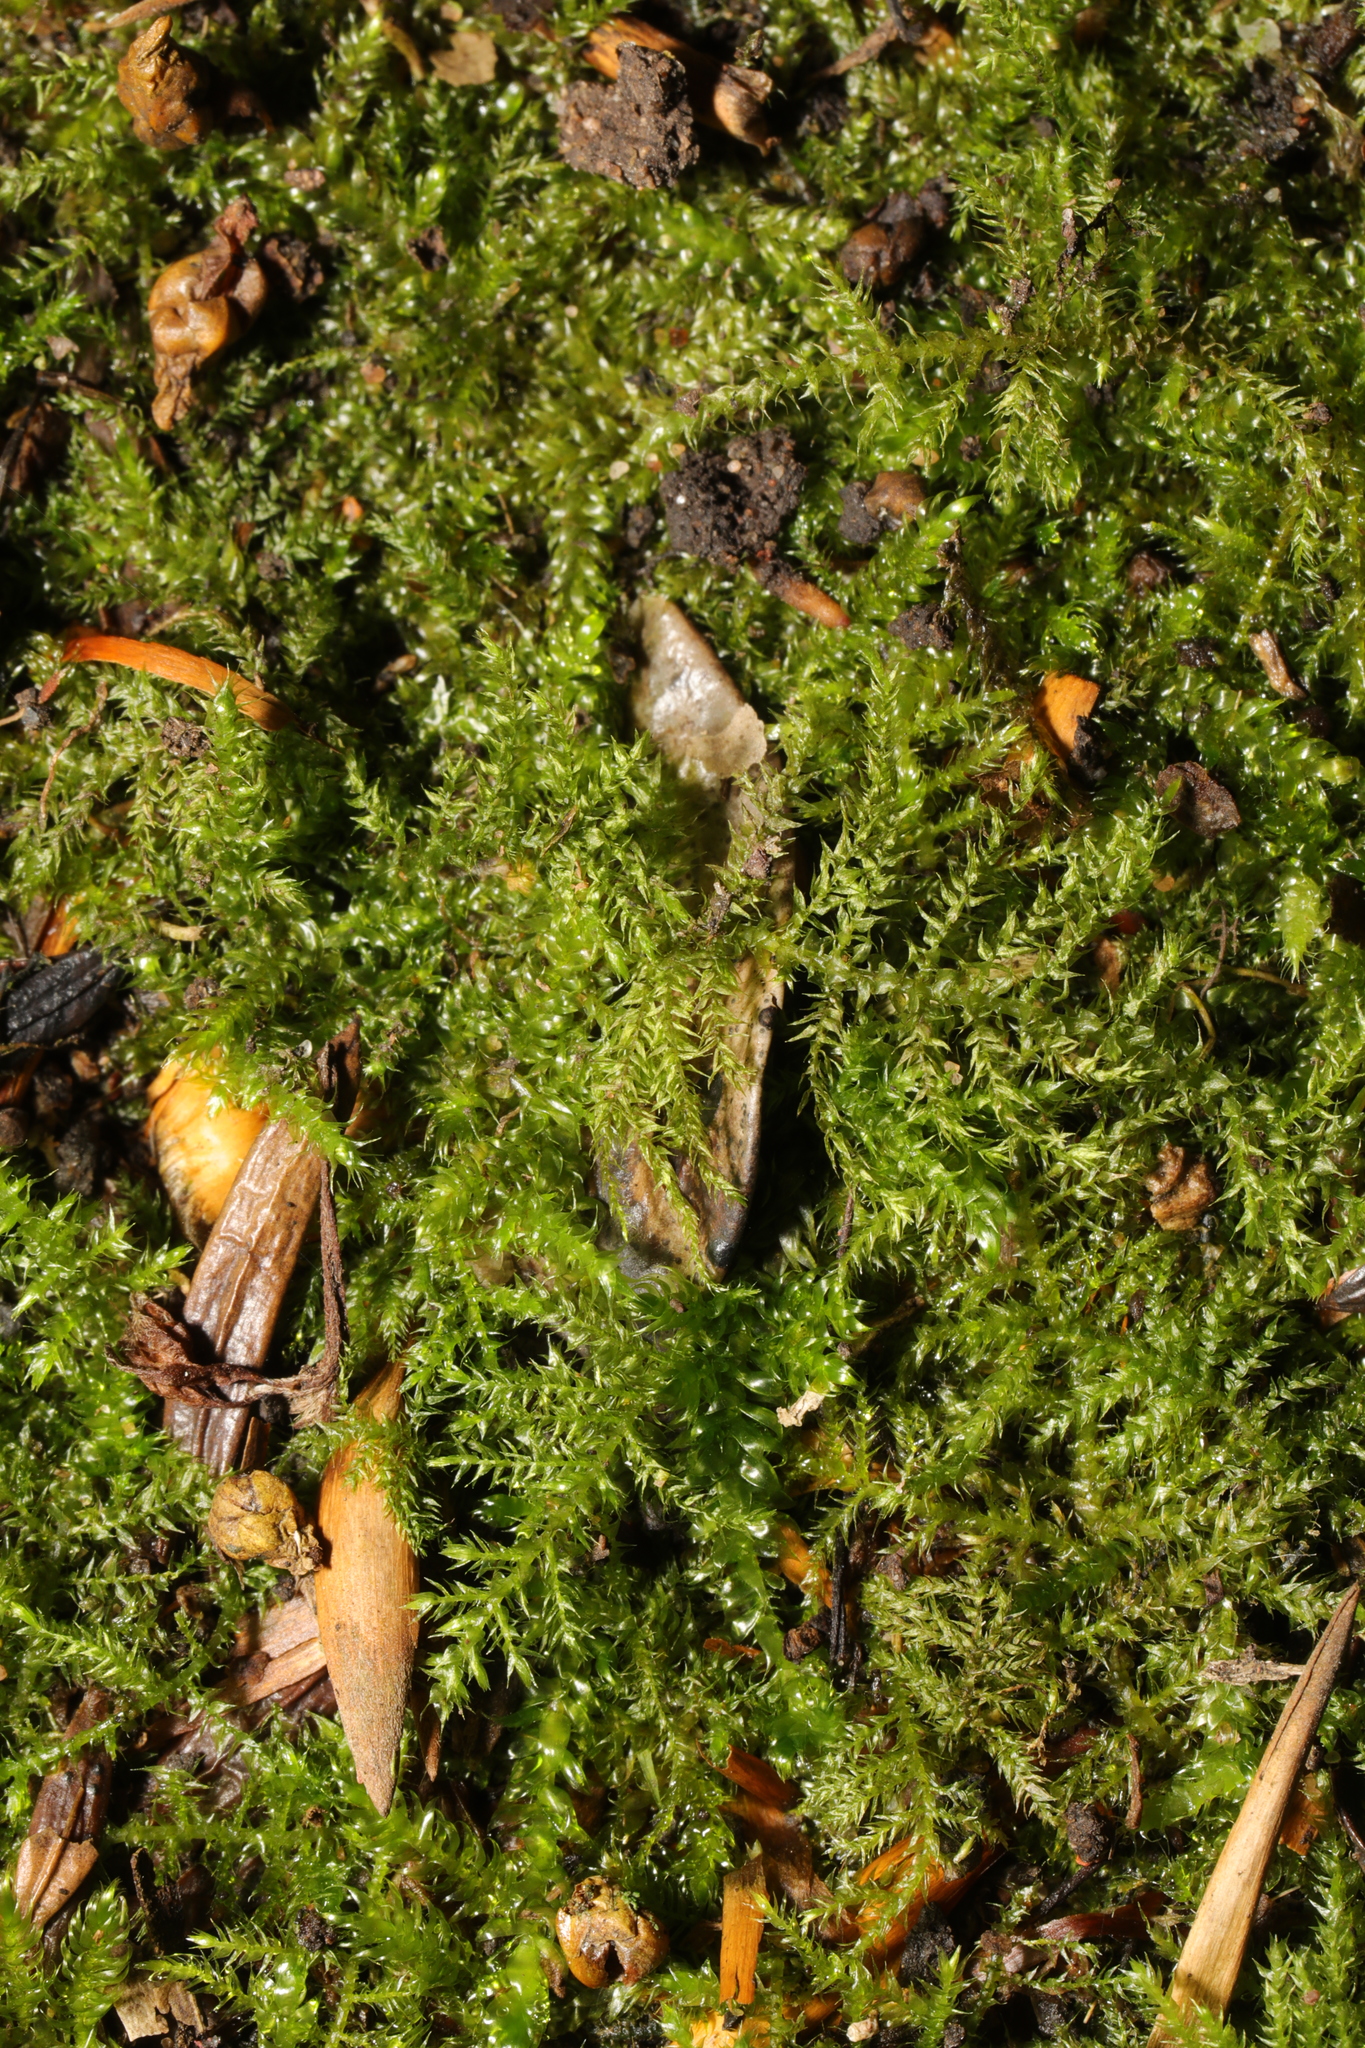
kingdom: Plantae
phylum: Bryophyta
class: Bryopsida
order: Hypnales
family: Brachytheciaceae
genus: Kindbergia
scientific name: Kindbergia praelonga
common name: Slender beaked moss
